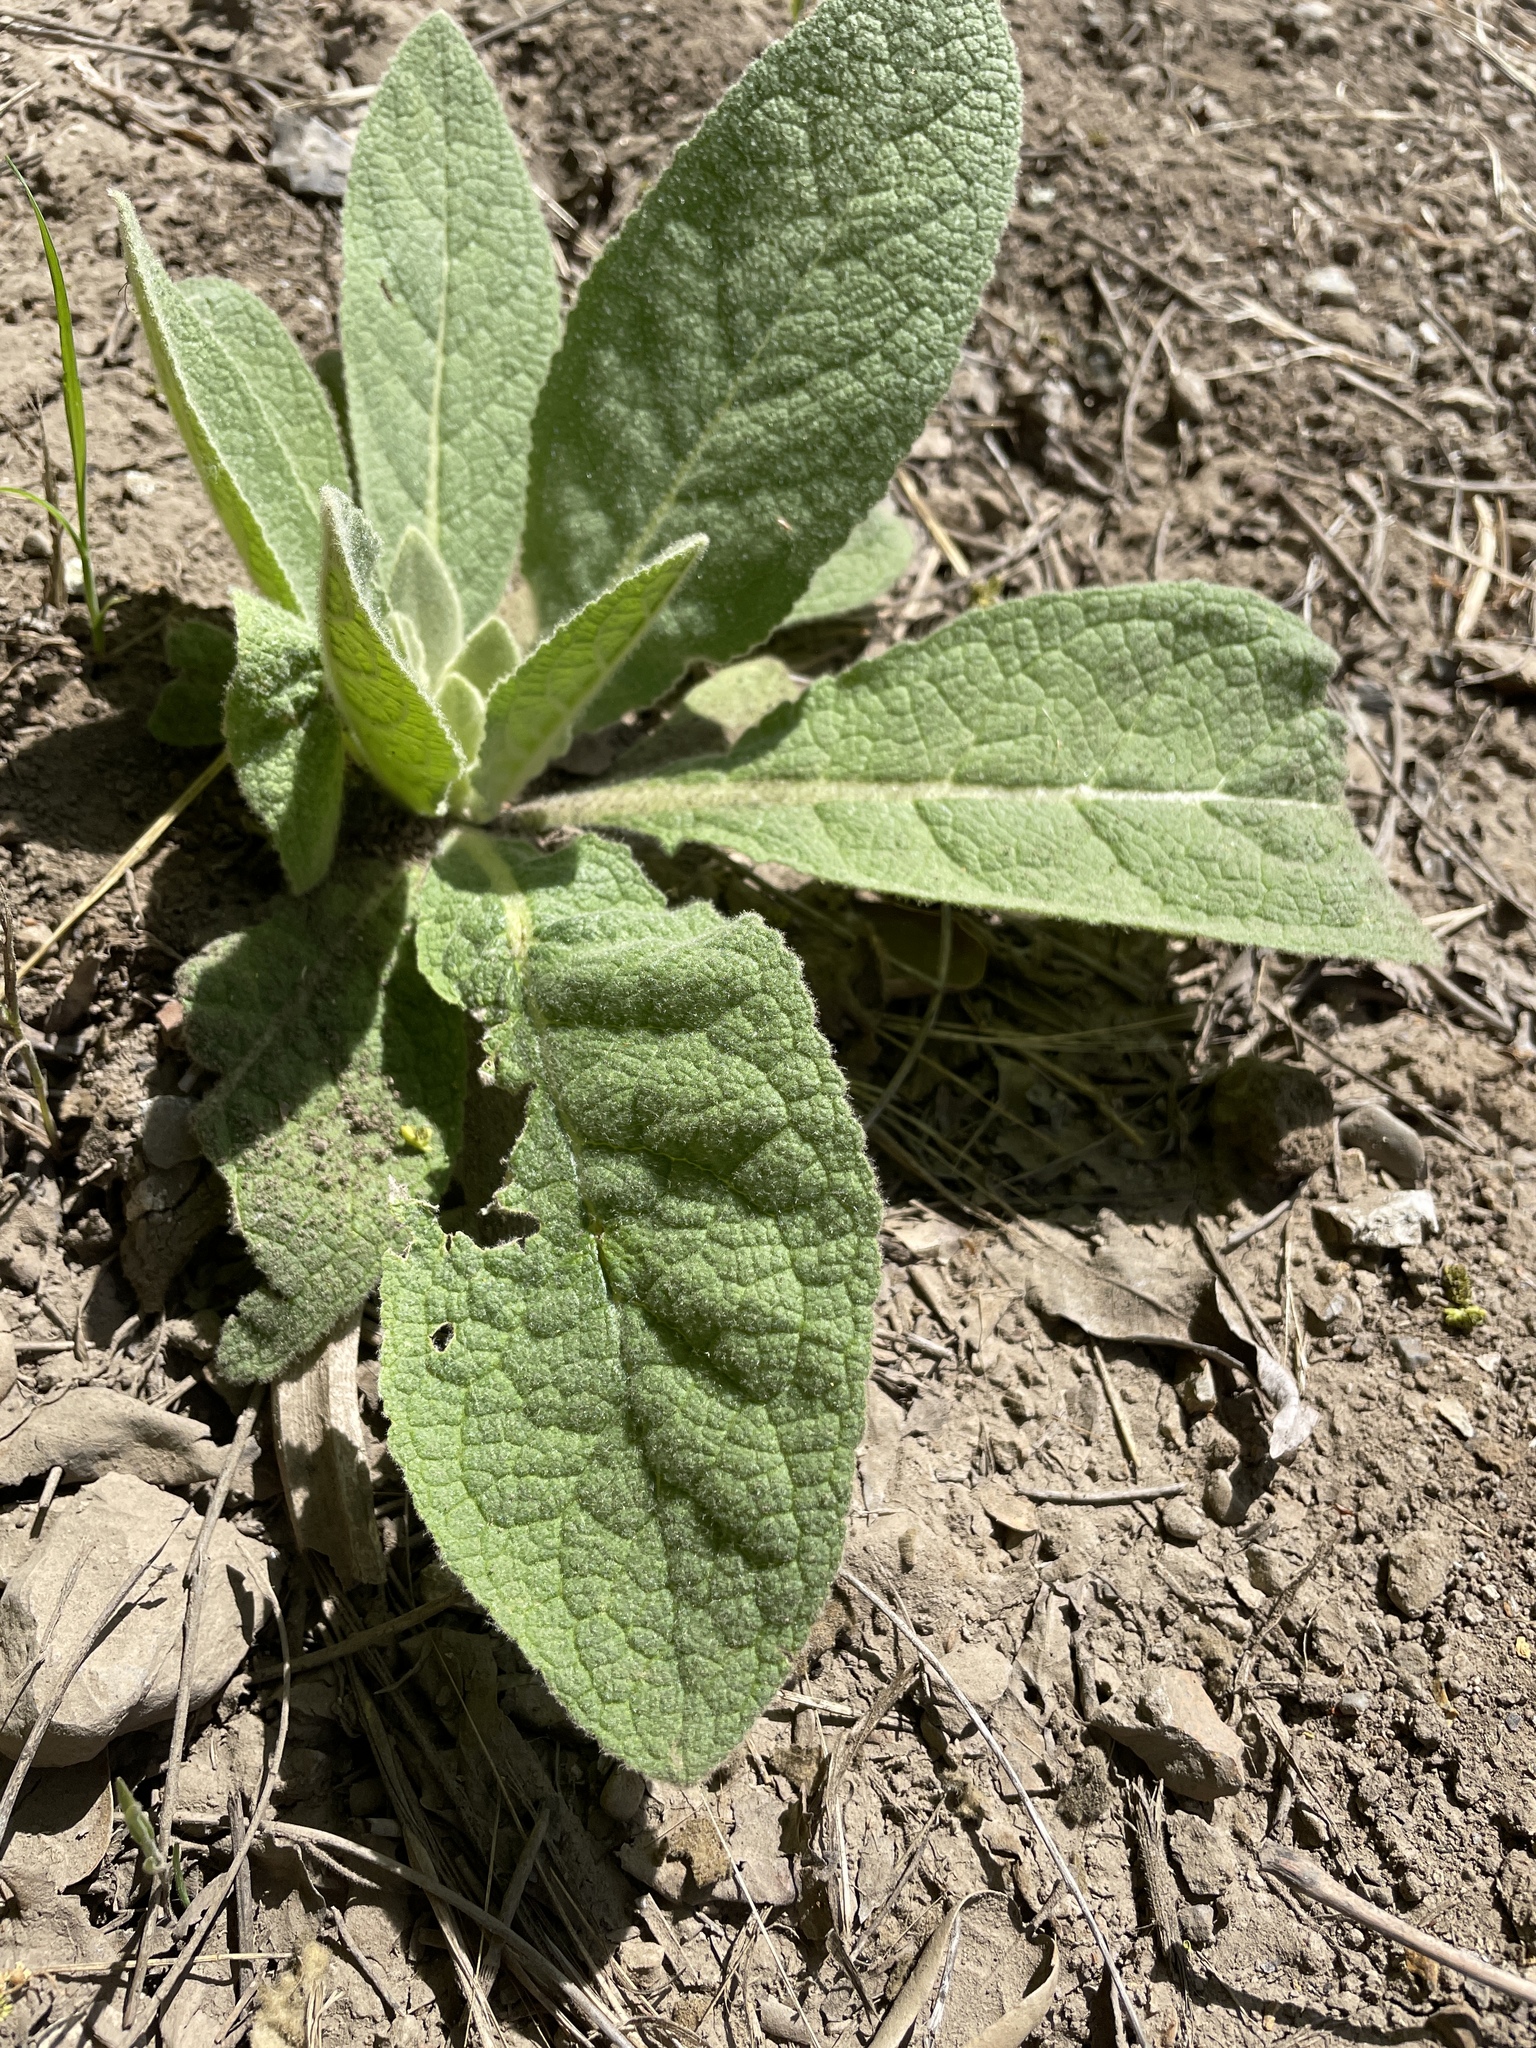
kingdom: Plantae
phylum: Tracheophyta
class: Magnoliopsida
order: Lamiales
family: Scrophulariaceae
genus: Verbascum
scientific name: Verbascum thapsus
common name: Common mullein
